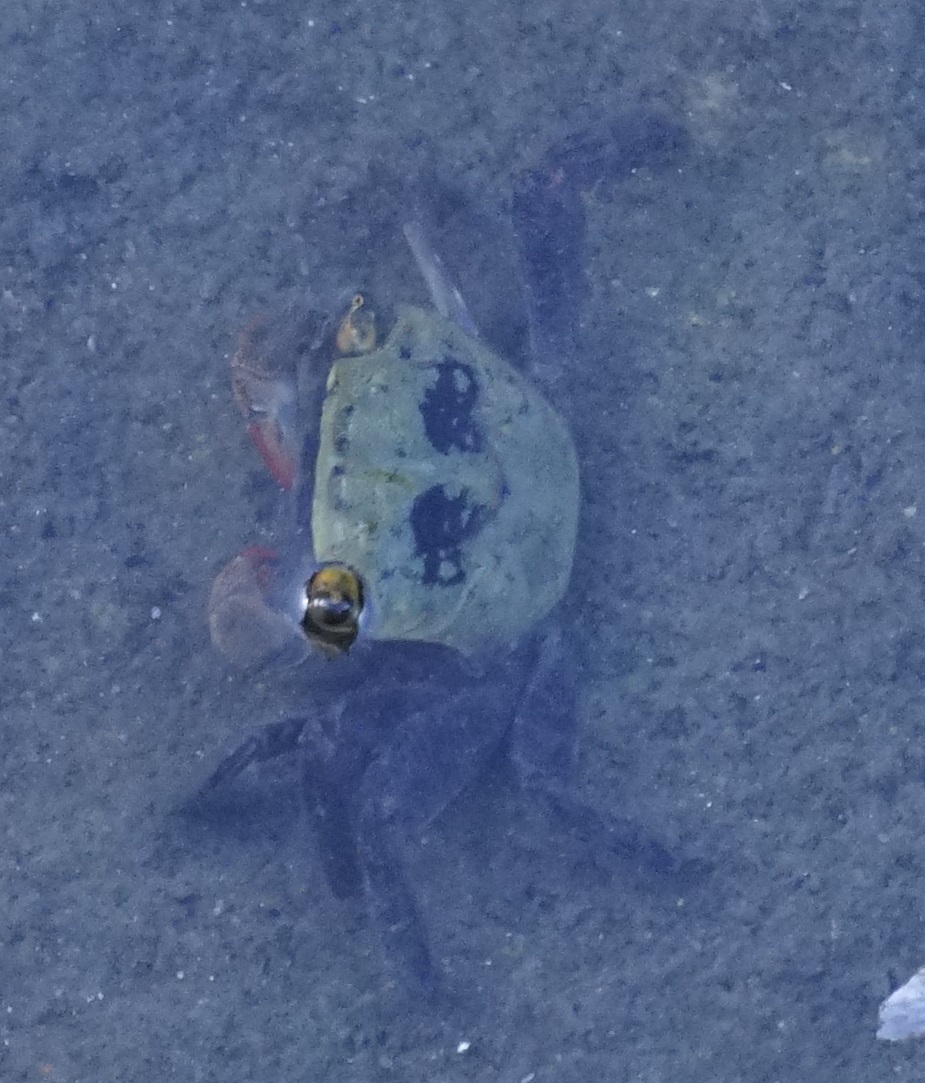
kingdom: Animalia
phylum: Arthropoda
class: Malacostraca
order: Decapoda
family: Sesarmidae
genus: Parasesarma
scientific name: Parasesarma erythodactylum
